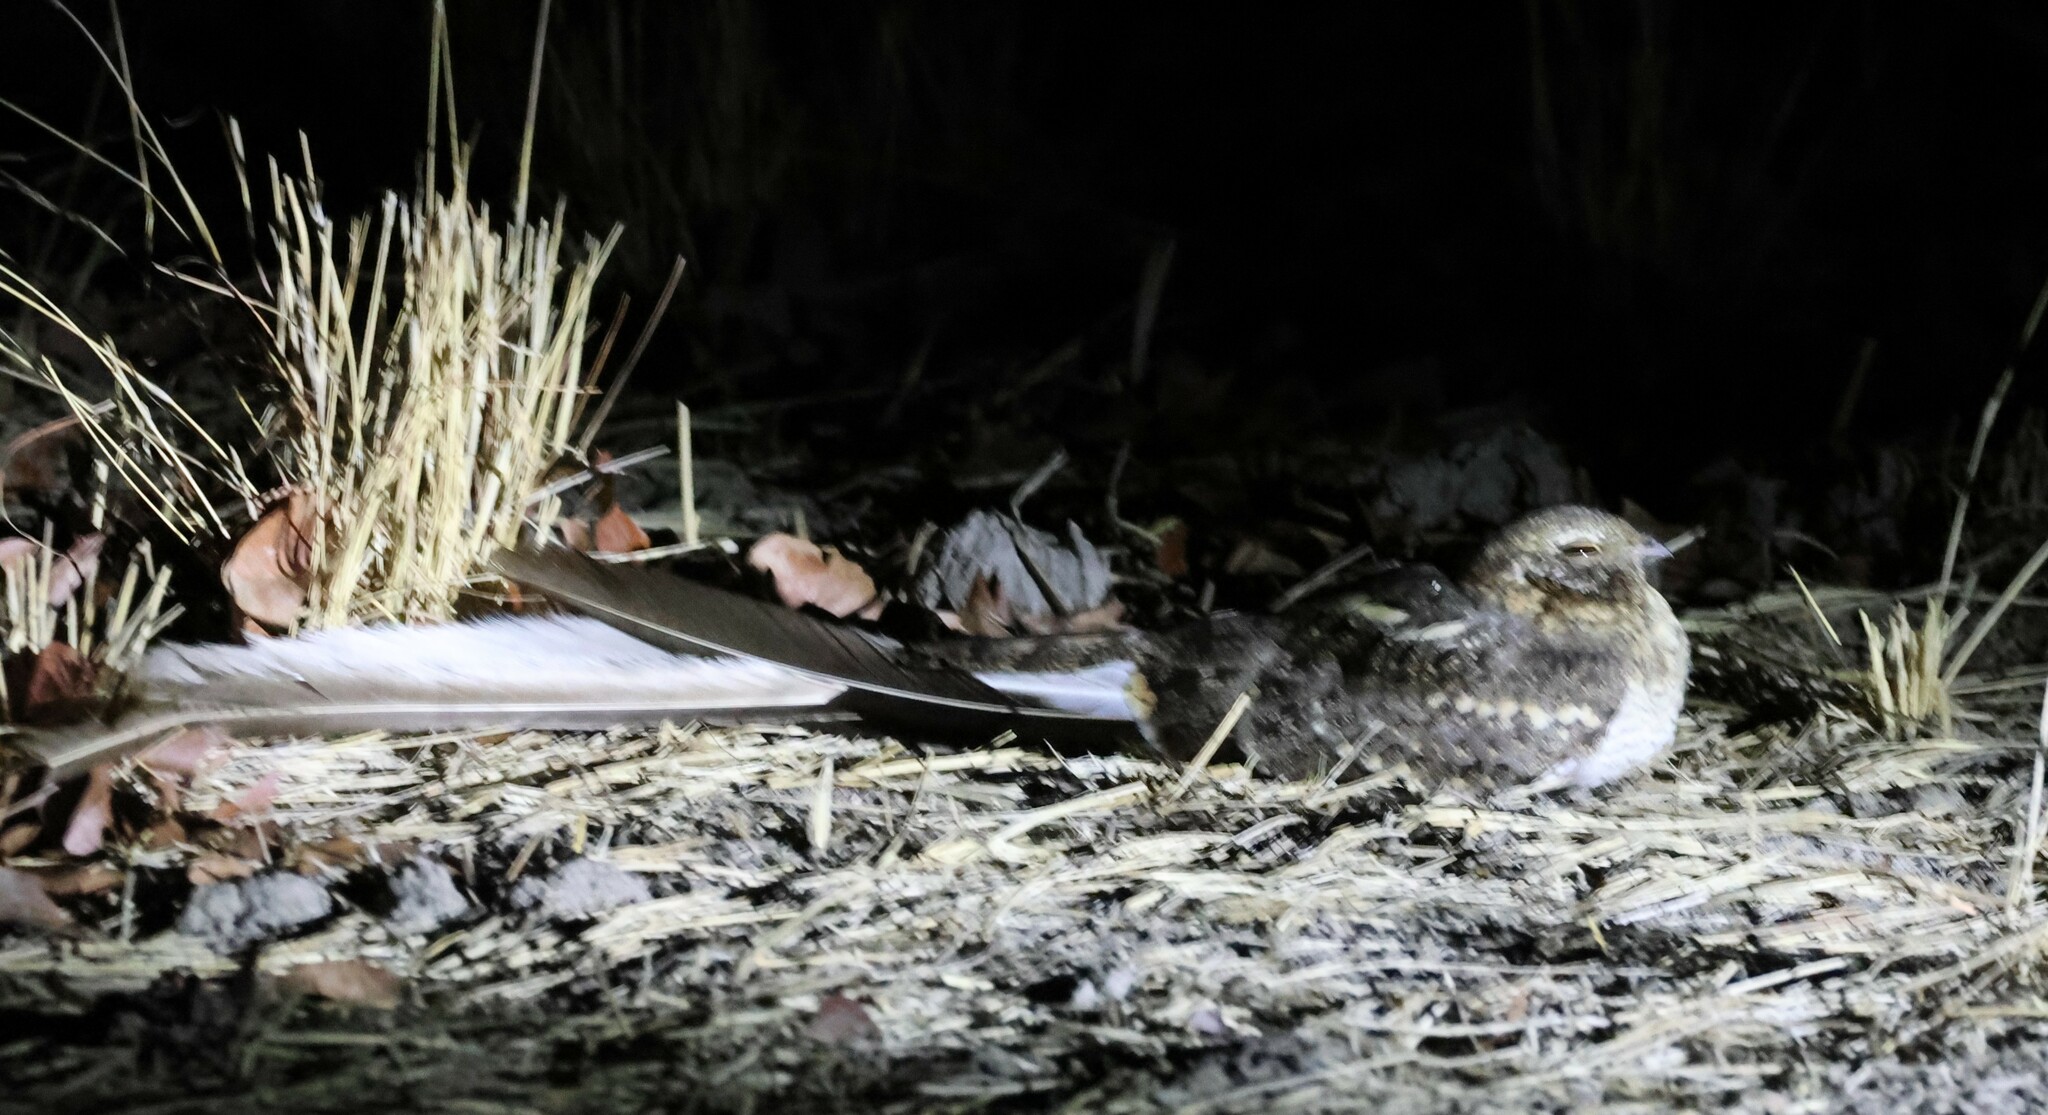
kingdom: Animalia
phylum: Chordata
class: Aves
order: Caprimulgiformes
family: Caprimulgidae
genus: Caprimulgus
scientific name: Caprimulgus vexillarius
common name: Pennant-winged nightjar
